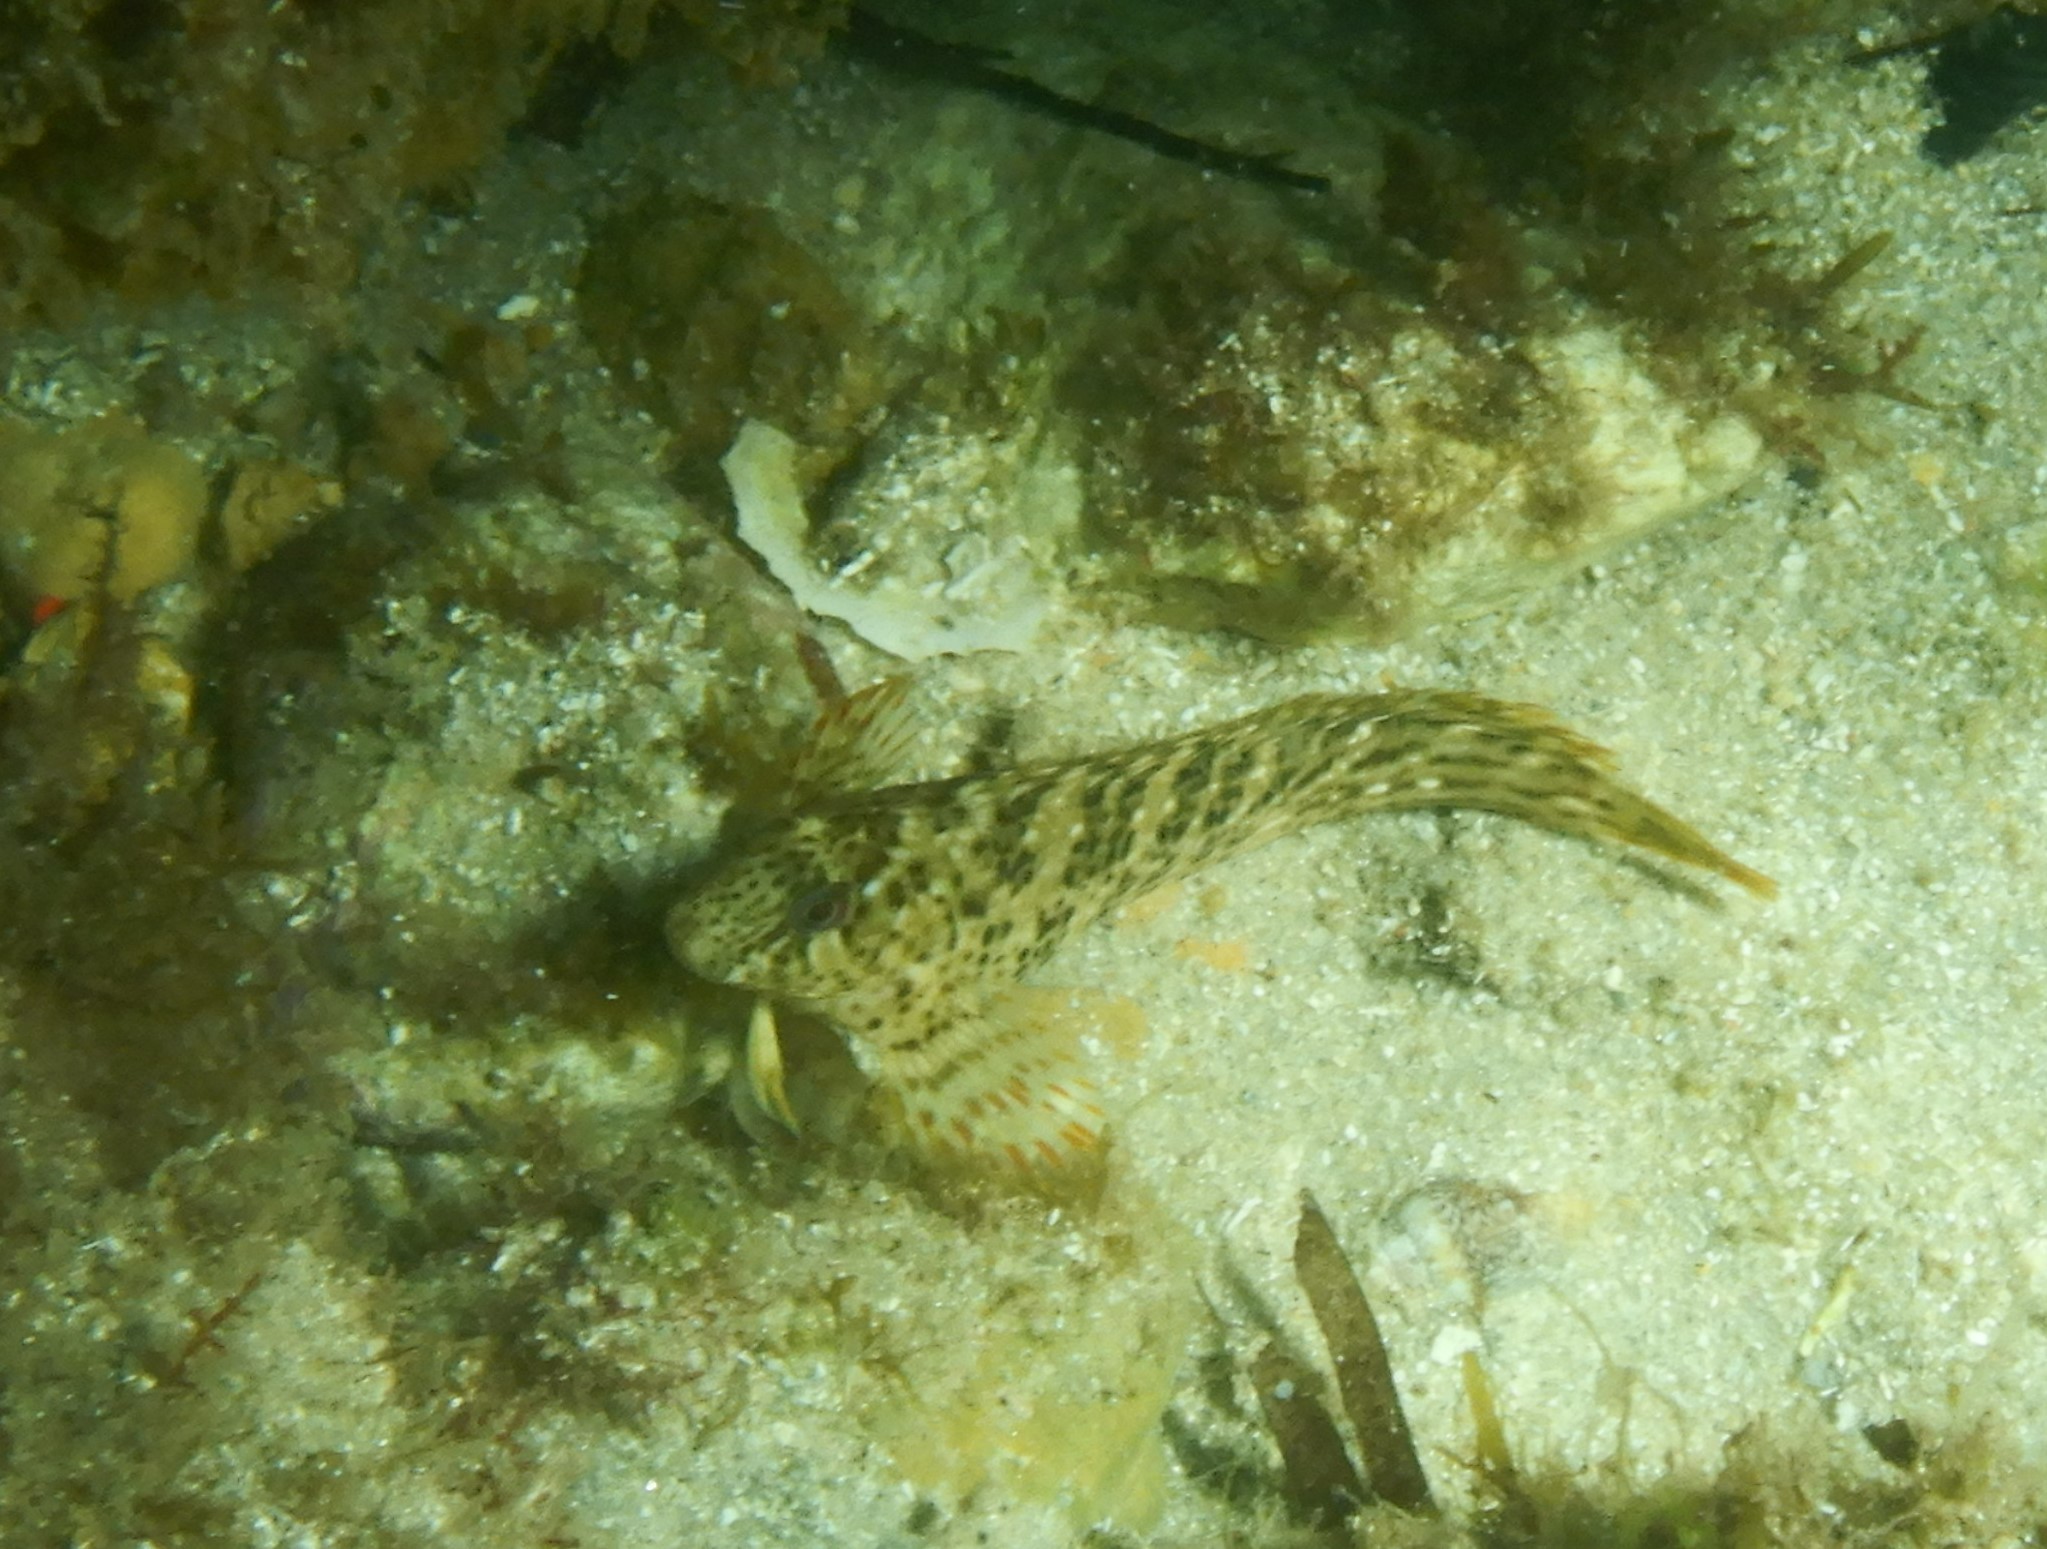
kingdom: Animalia
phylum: Chordata
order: Perciformes
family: Blenniidae
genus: Parablennius
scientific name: Parablennius sanguinolentus
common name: Black sea blenny
